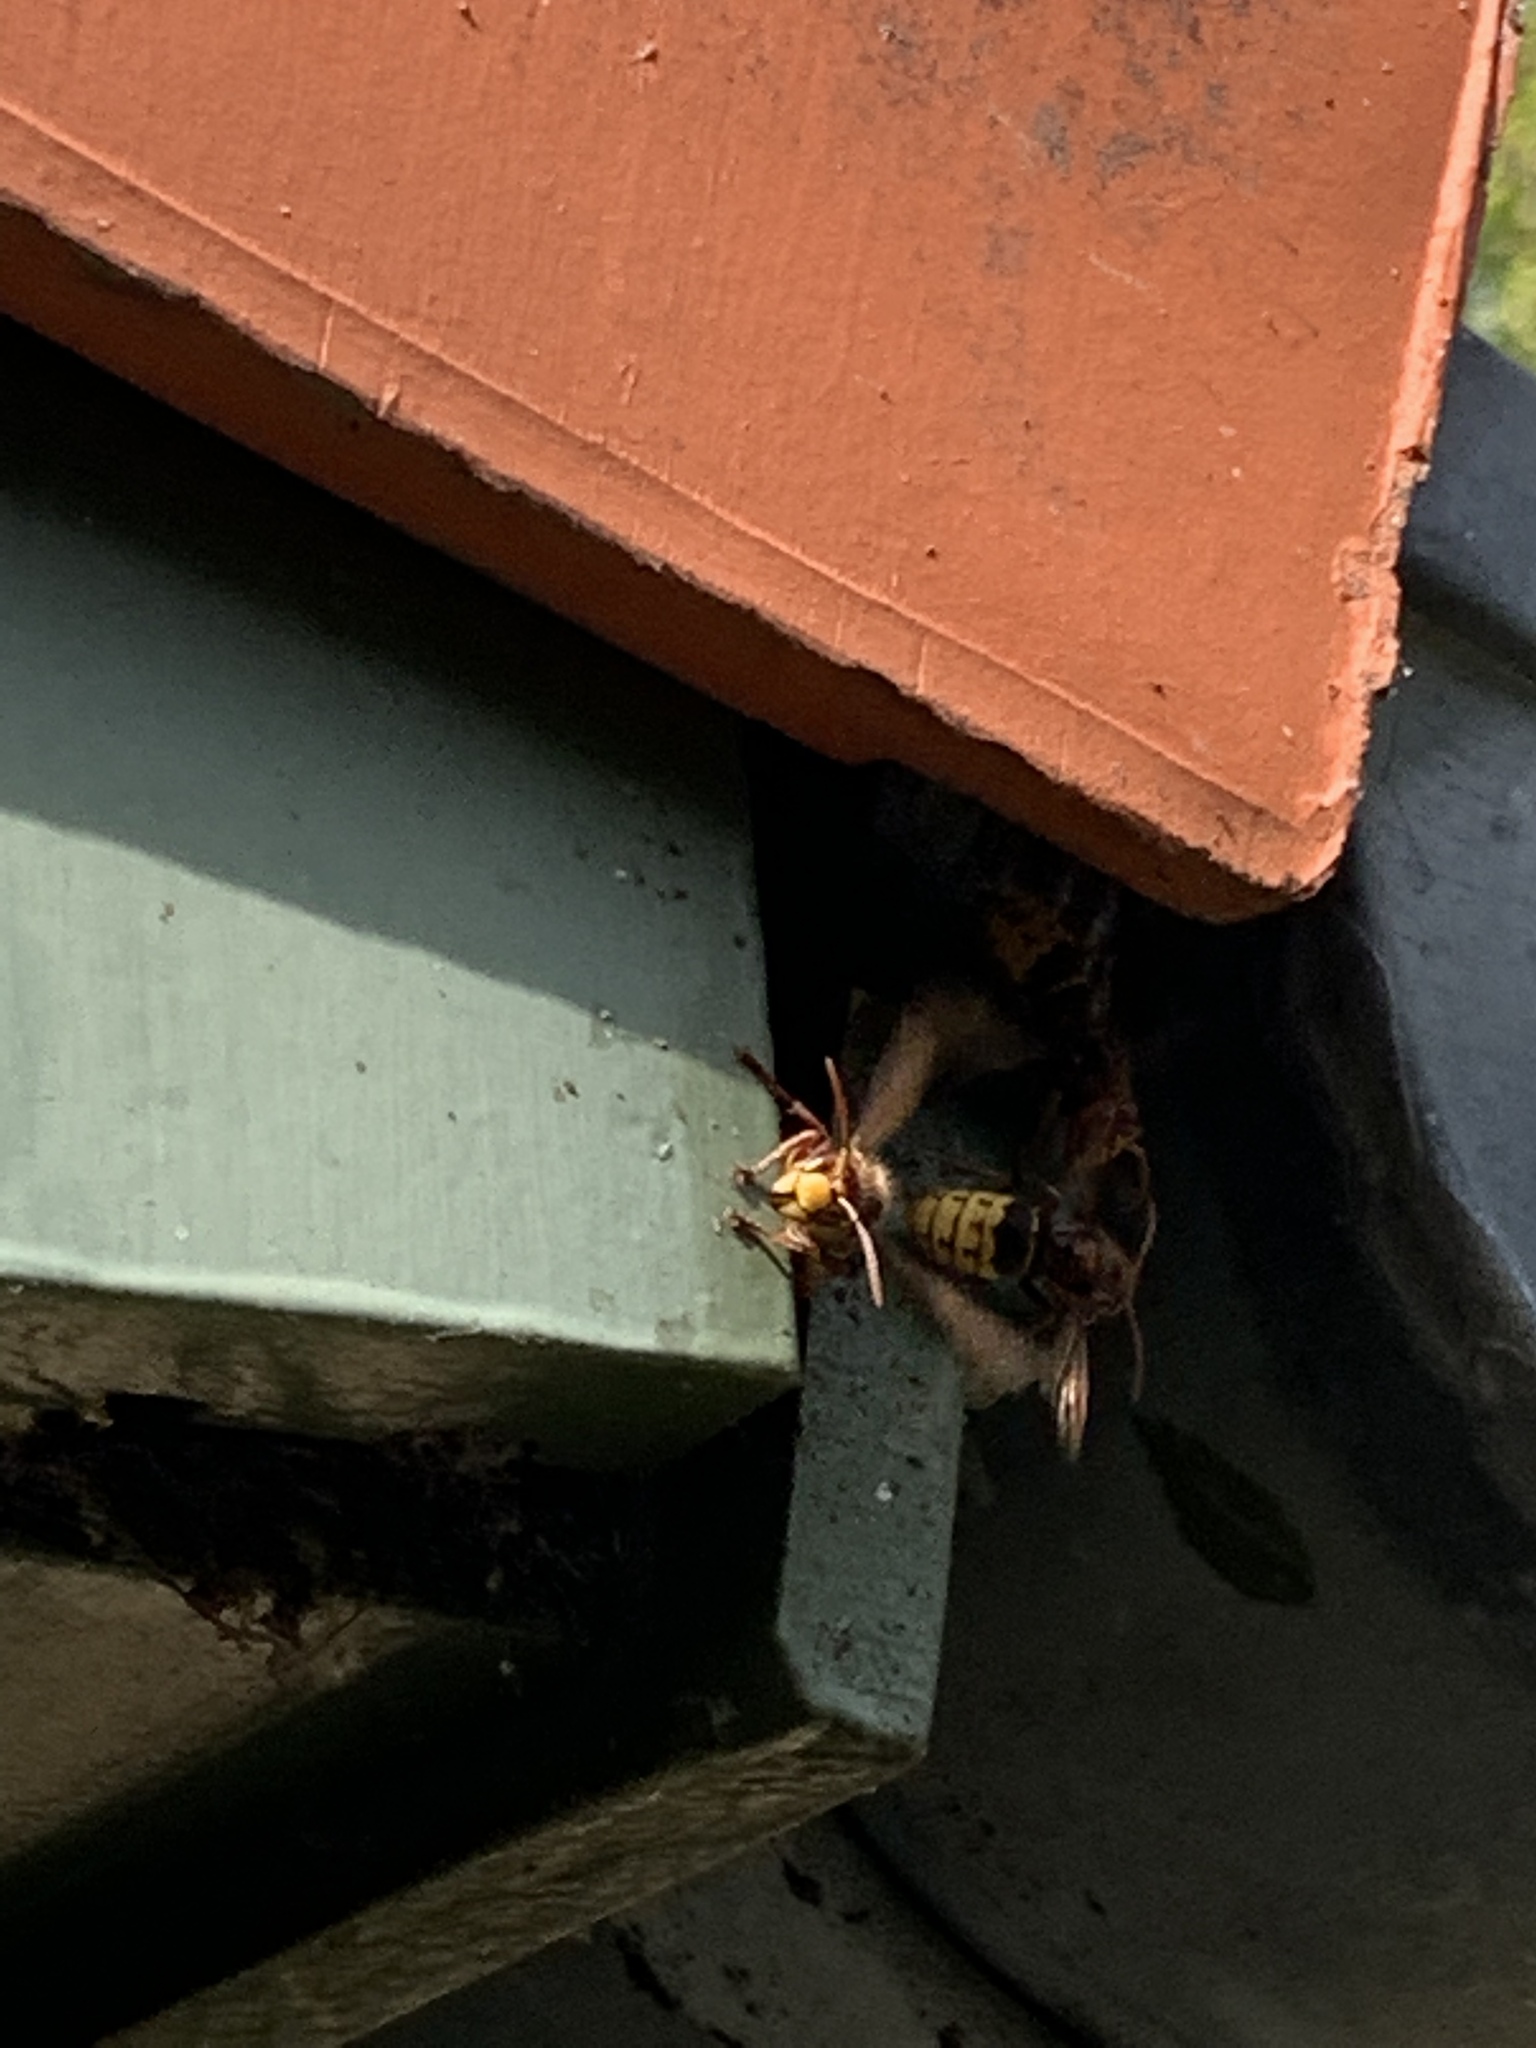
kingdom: Animalia
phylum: Arthropoda
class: Insecta
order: Hymenoptera
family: Vespidae
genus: Vespa
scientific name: Vespa crabro
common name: Hornet
